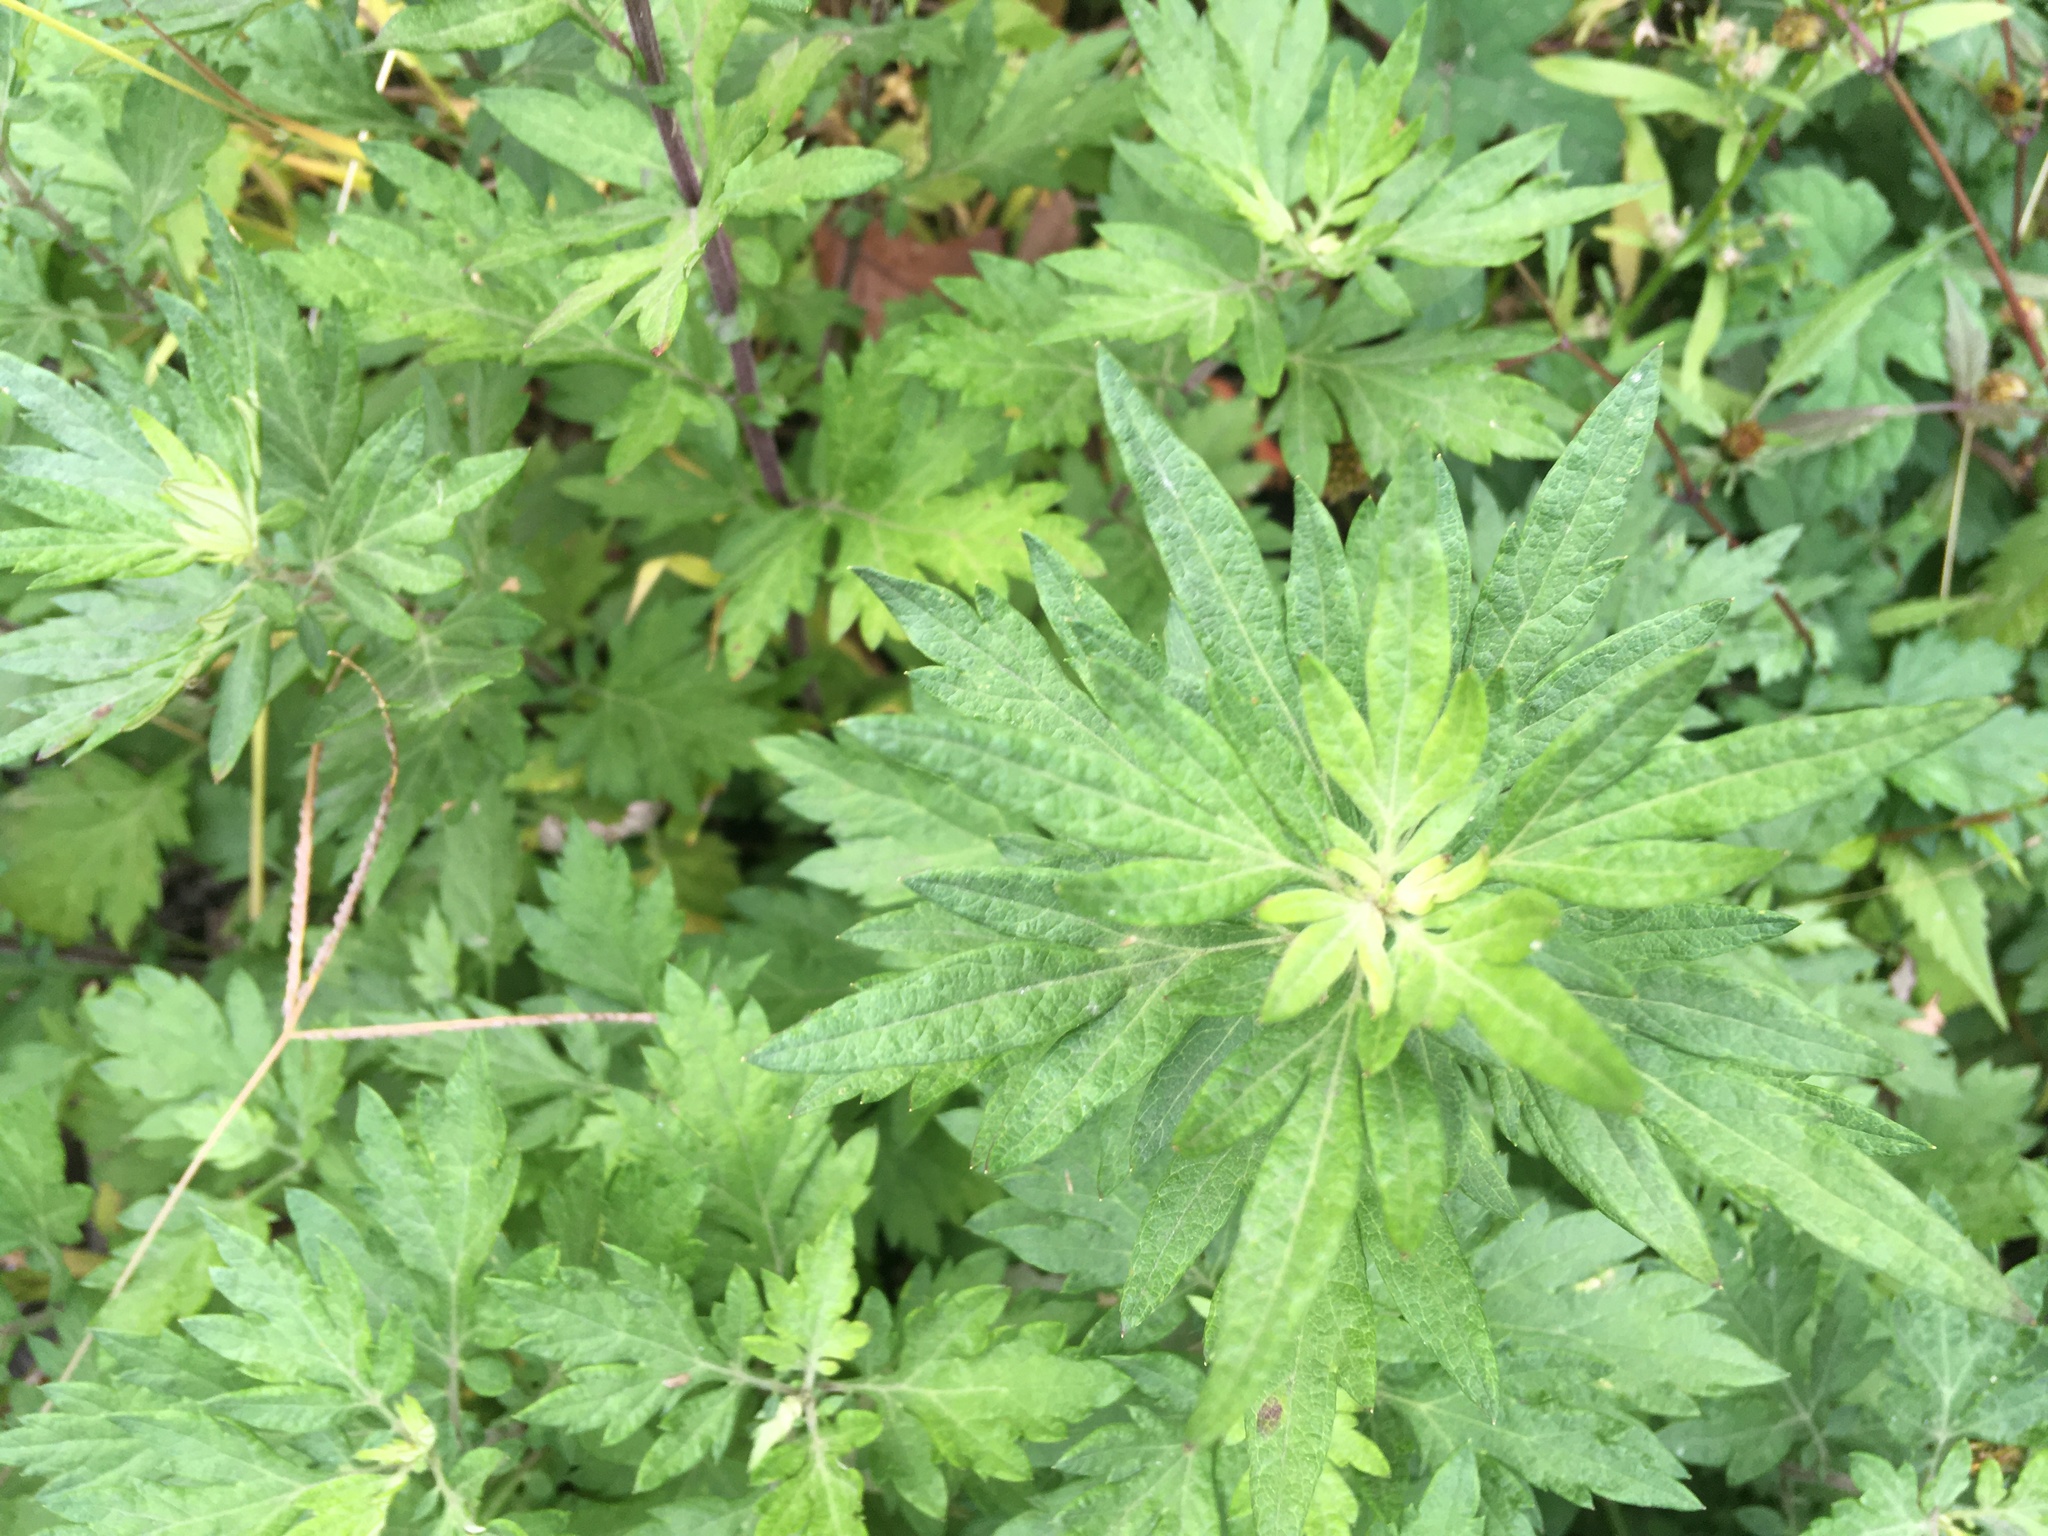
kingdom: Plantae
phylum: Tracheophyta
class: Magnoliopsida
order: Asterales
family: Asteraceae
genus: Artemisia
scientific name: Artemisia vulgaris
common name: Mugwort
